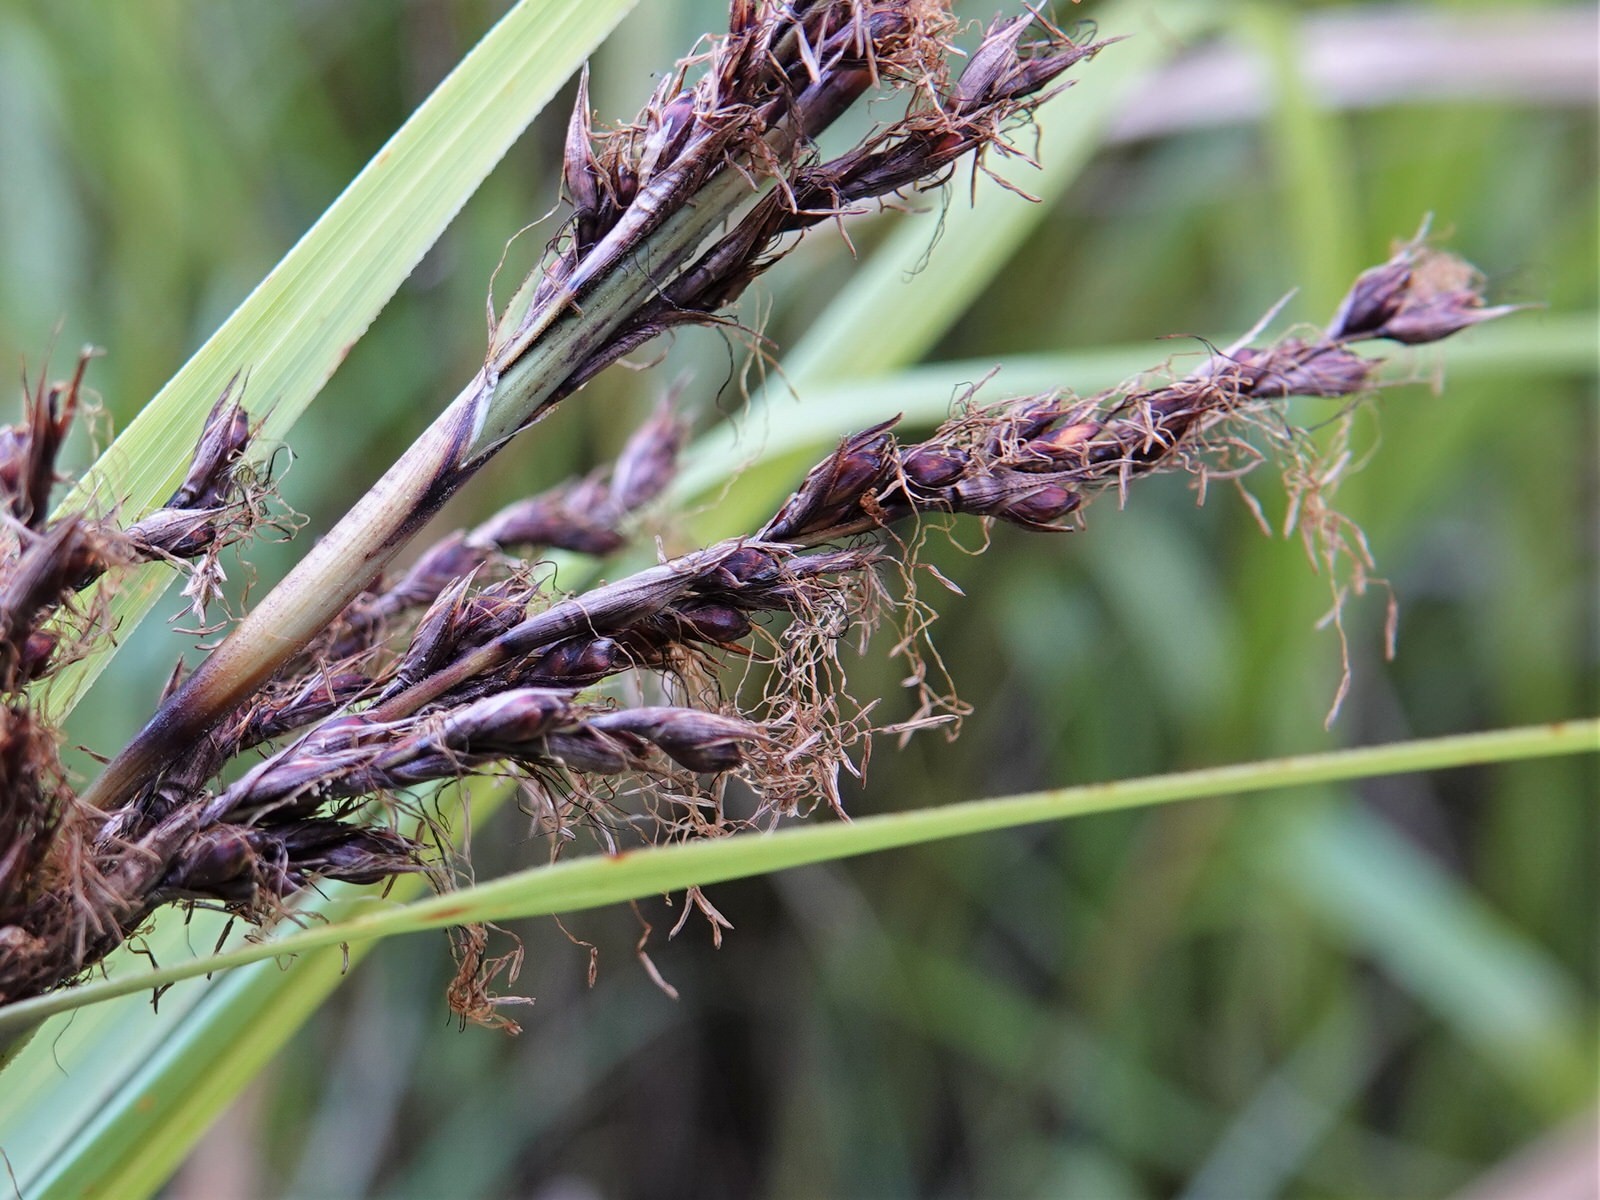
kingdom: Plantae
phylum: Tracheophyta
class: Liliopsida
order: Poales
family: Cyperaceae
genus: Gahnia
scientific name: Gahnia lacera
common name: Sawsedge
